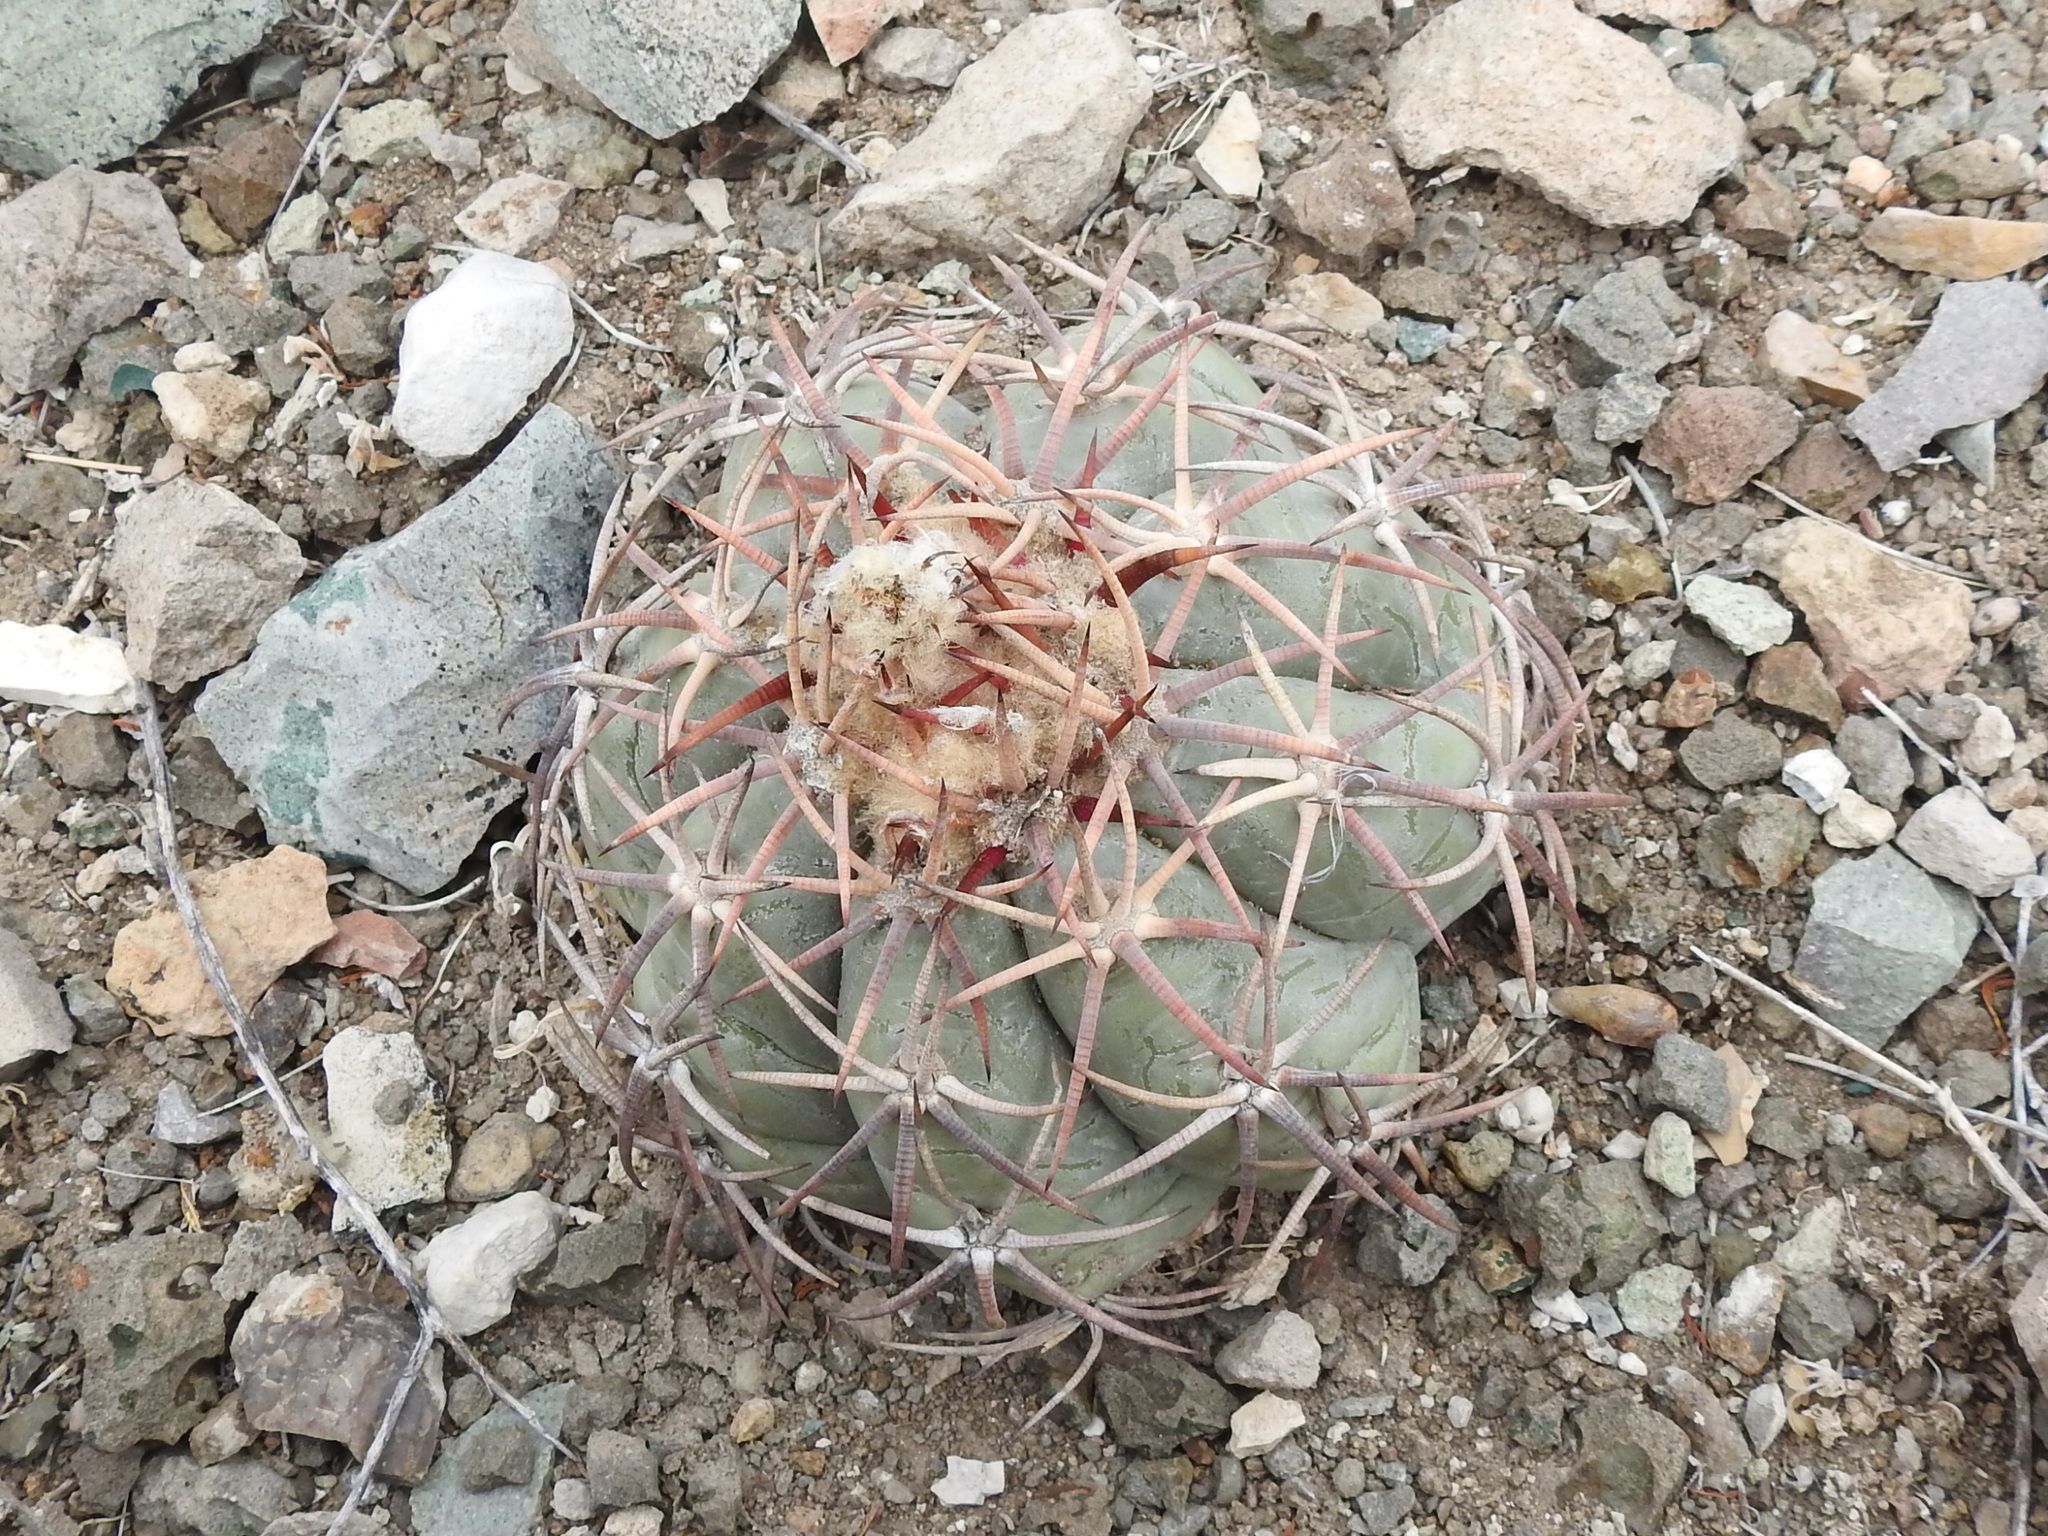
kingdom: Plantae
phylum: Tracheophyta
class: Magnoliopsida
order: Caryophyllales
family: Cactaceae
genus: Echinocactus
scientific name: Echinocactus horizonthalonius
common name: Devilshead
